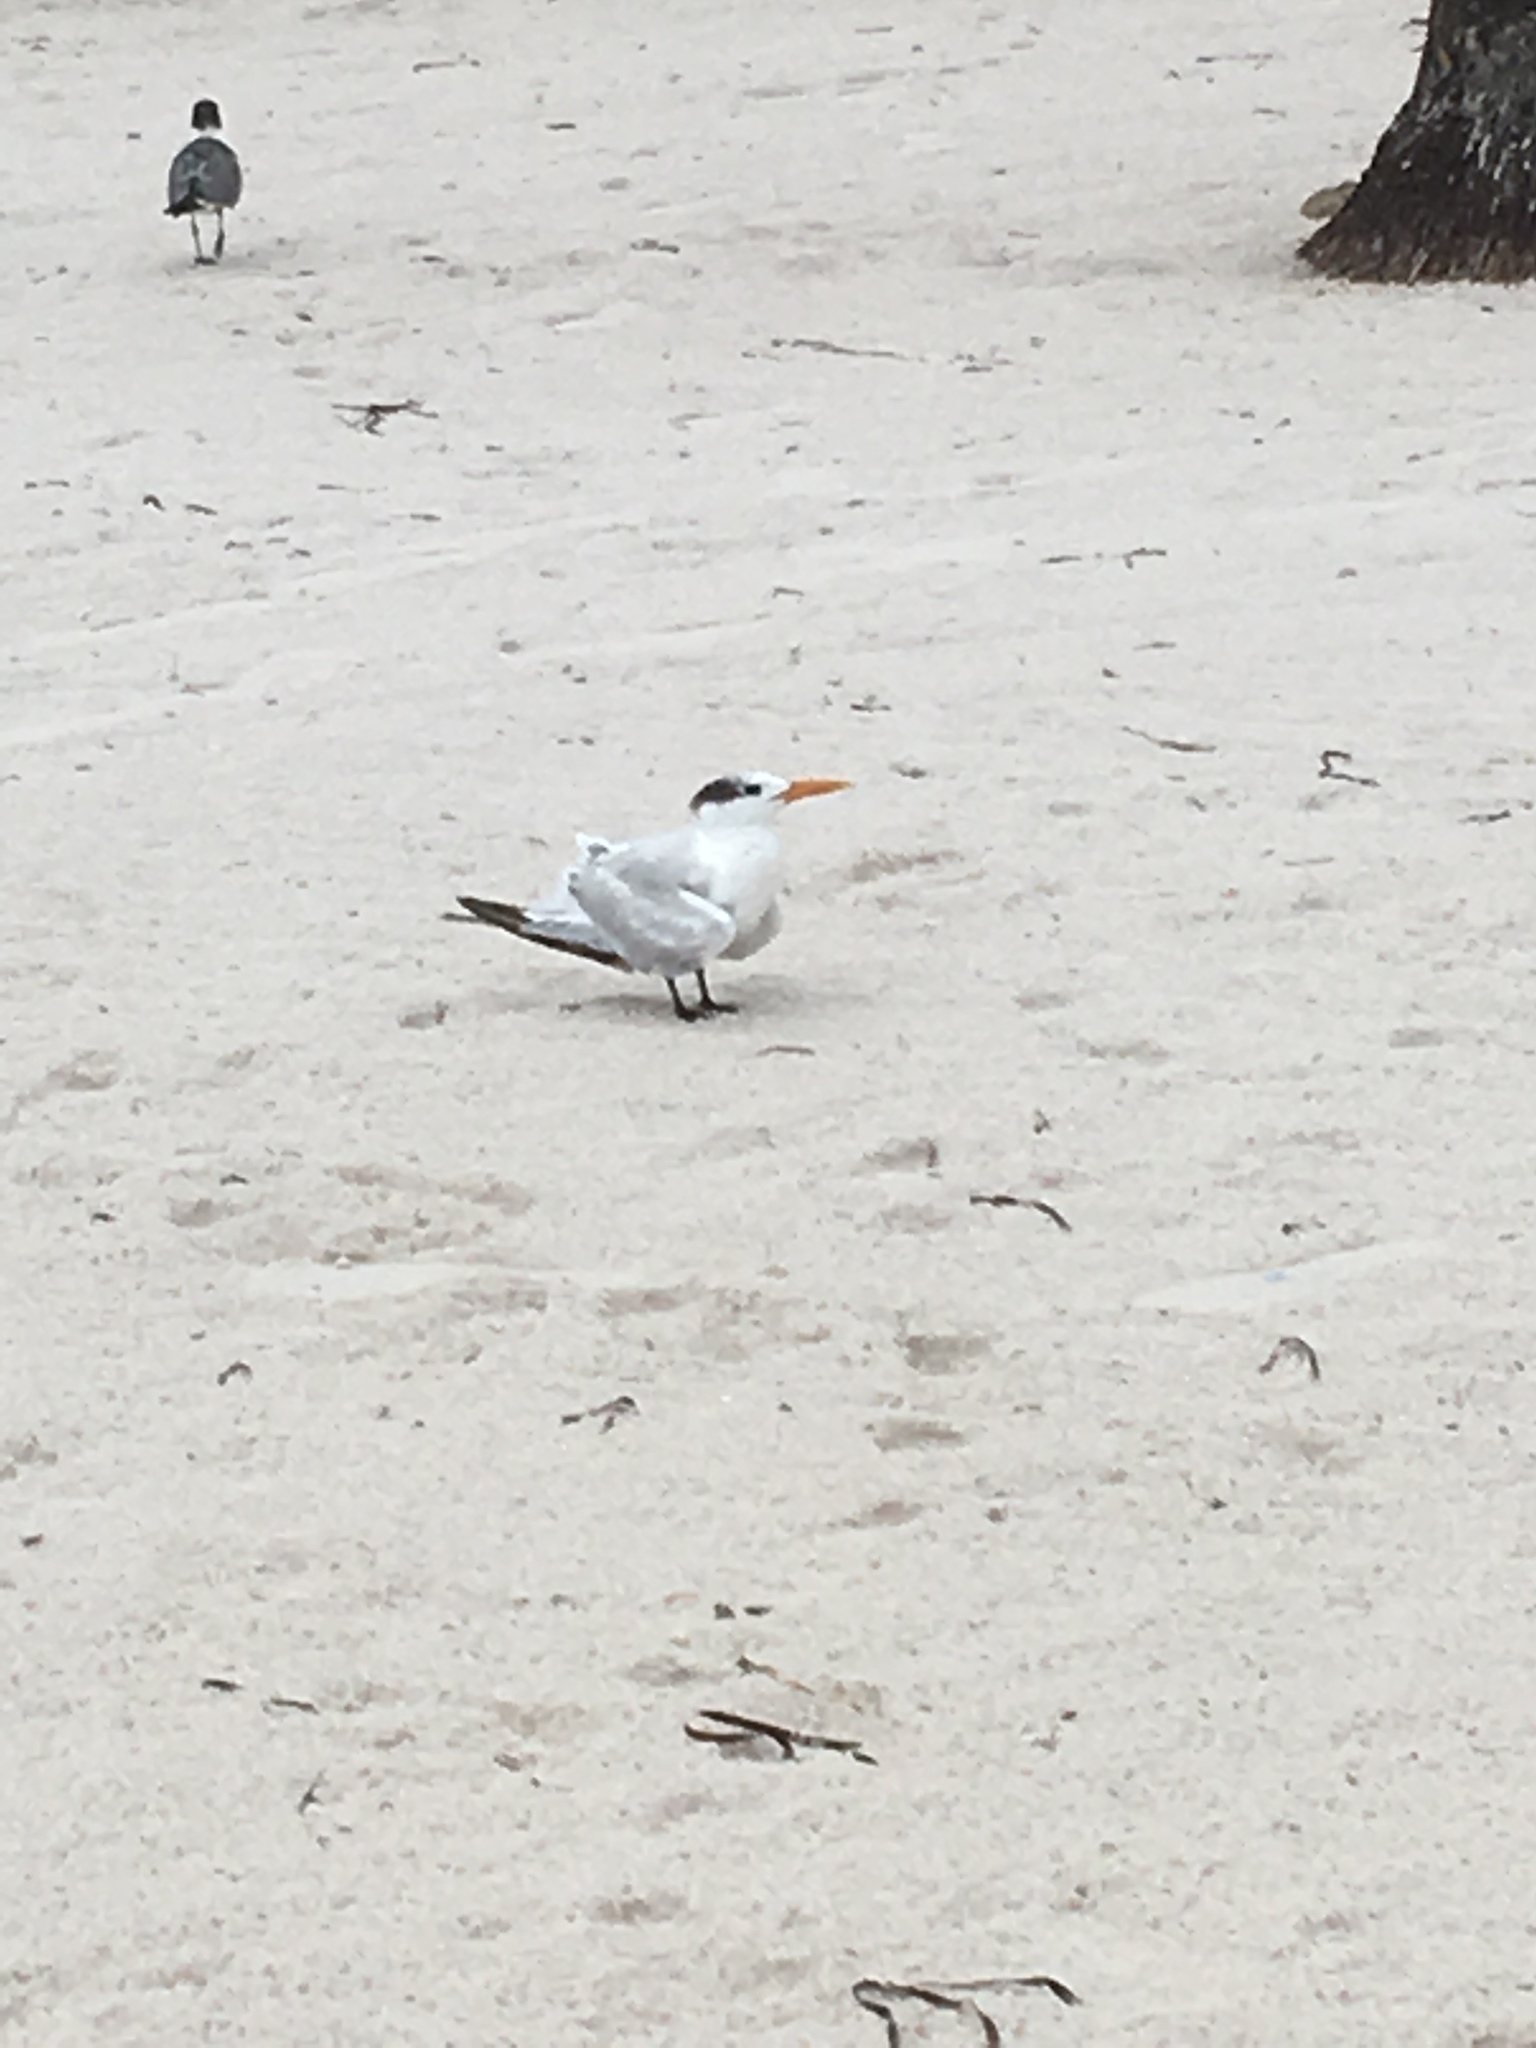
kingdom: Animalia
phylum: Chordata
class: Aves
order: Charadriiformes
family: Laridae
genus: Thalasseus
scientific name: Thalasseus maximus
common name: Royal tern
